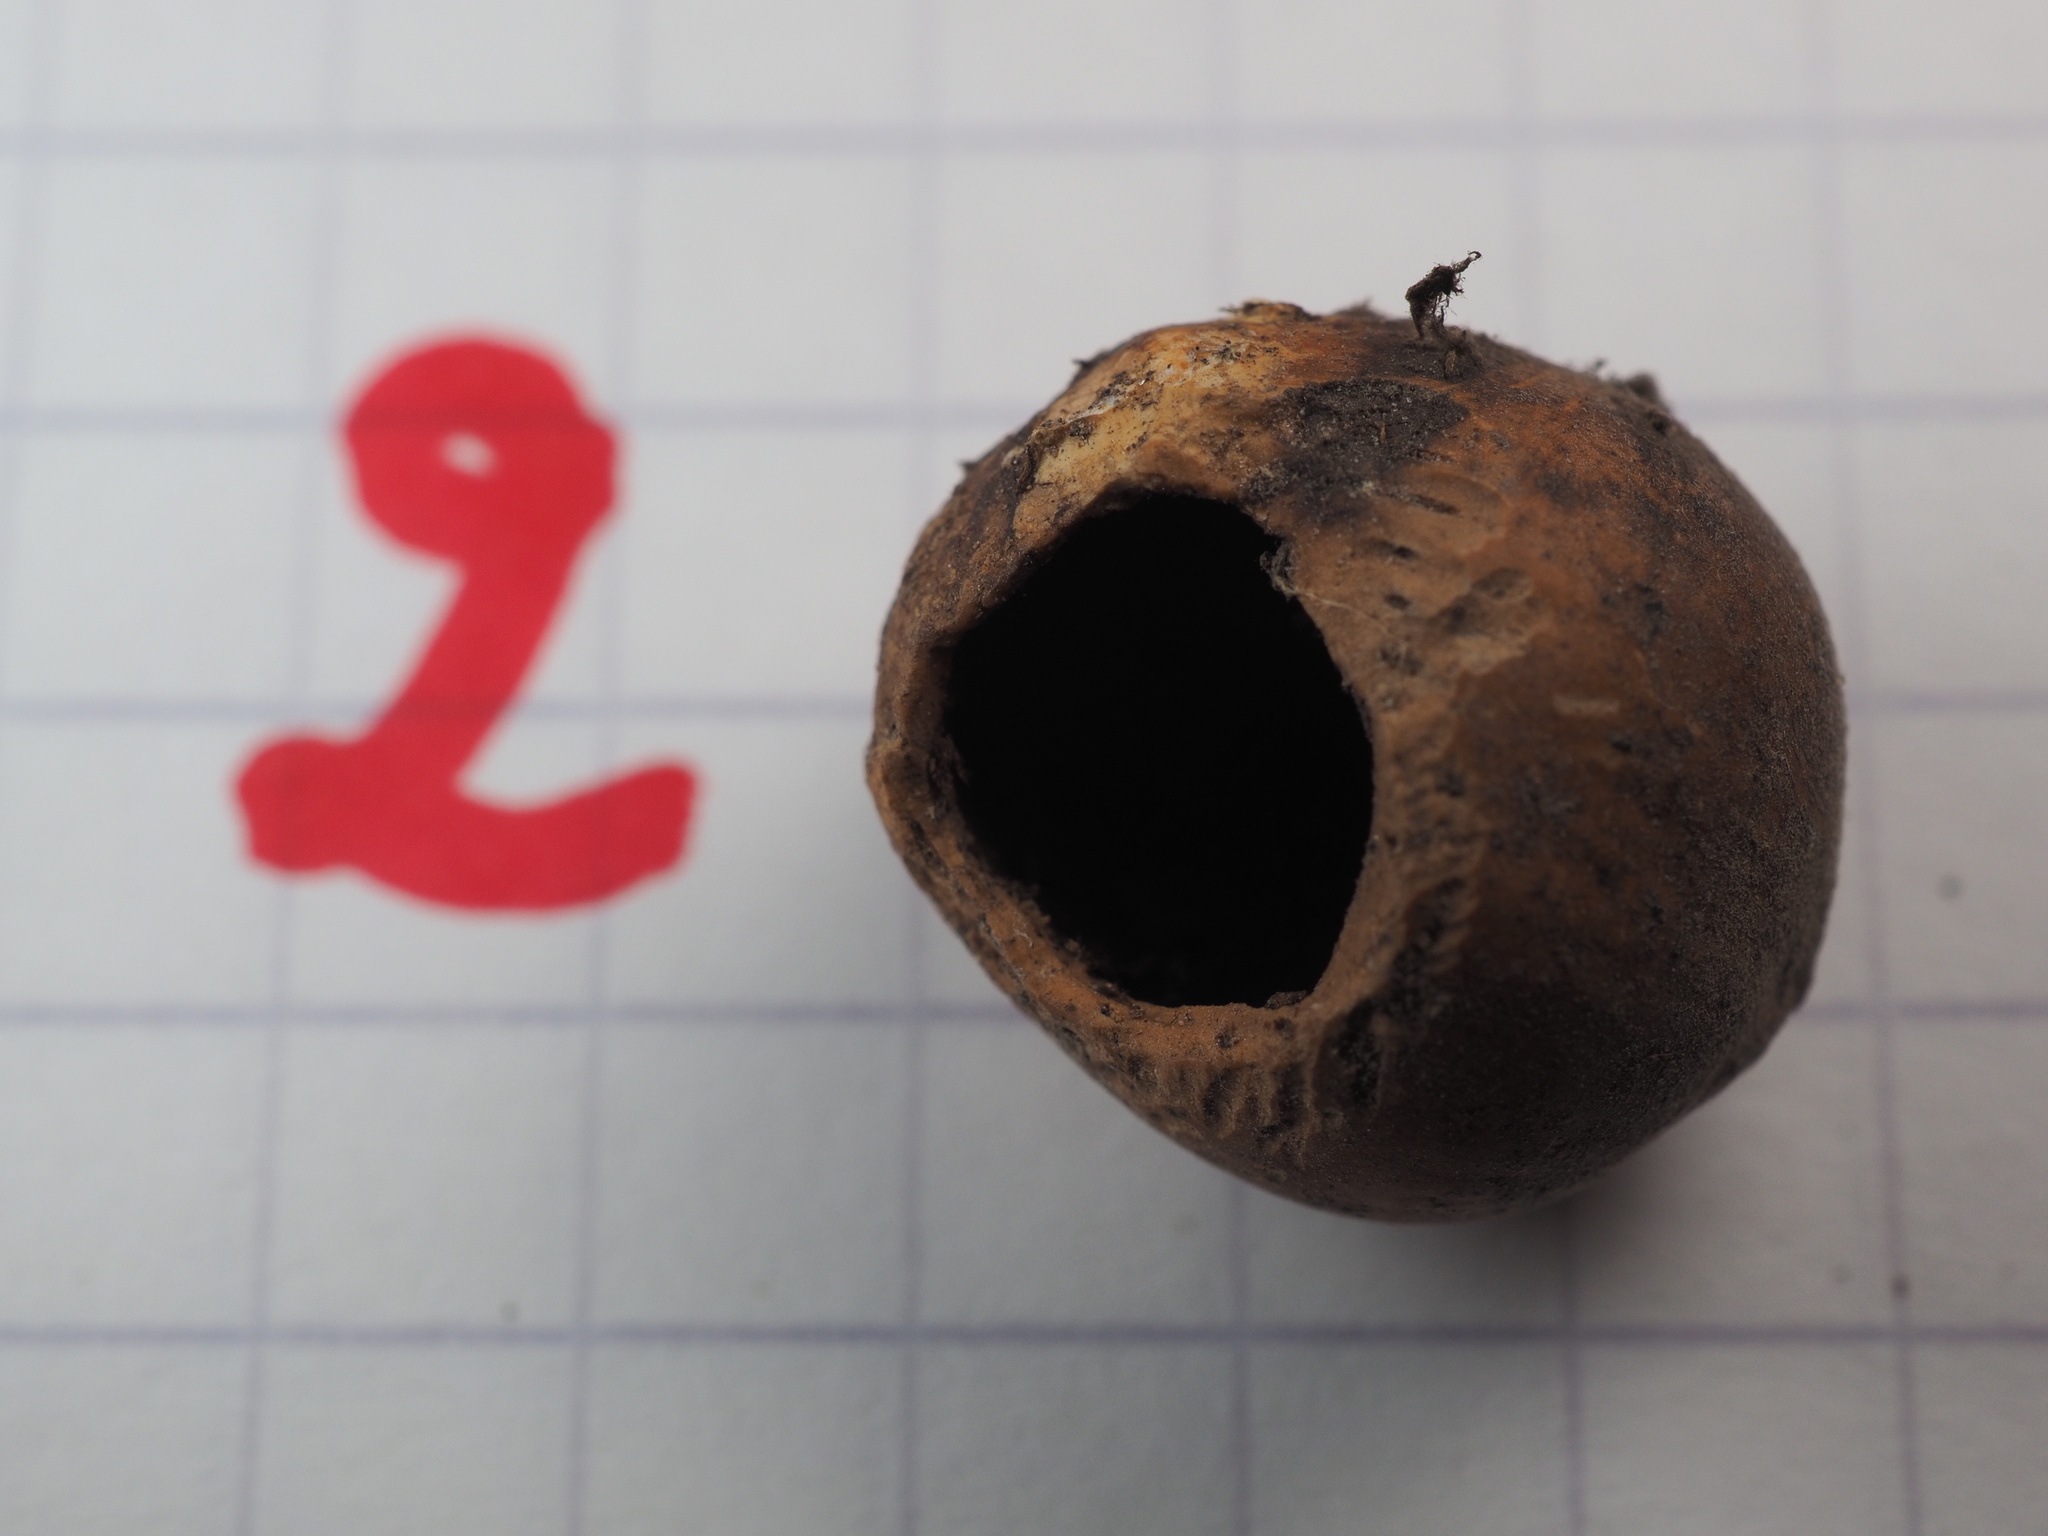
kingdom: Animalia
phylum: Chordata
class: Mammalia
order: Rodentia
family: Gliridae
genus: Muscardinus
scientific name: Muscardinus avellanarius
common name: Hazel dormouse
